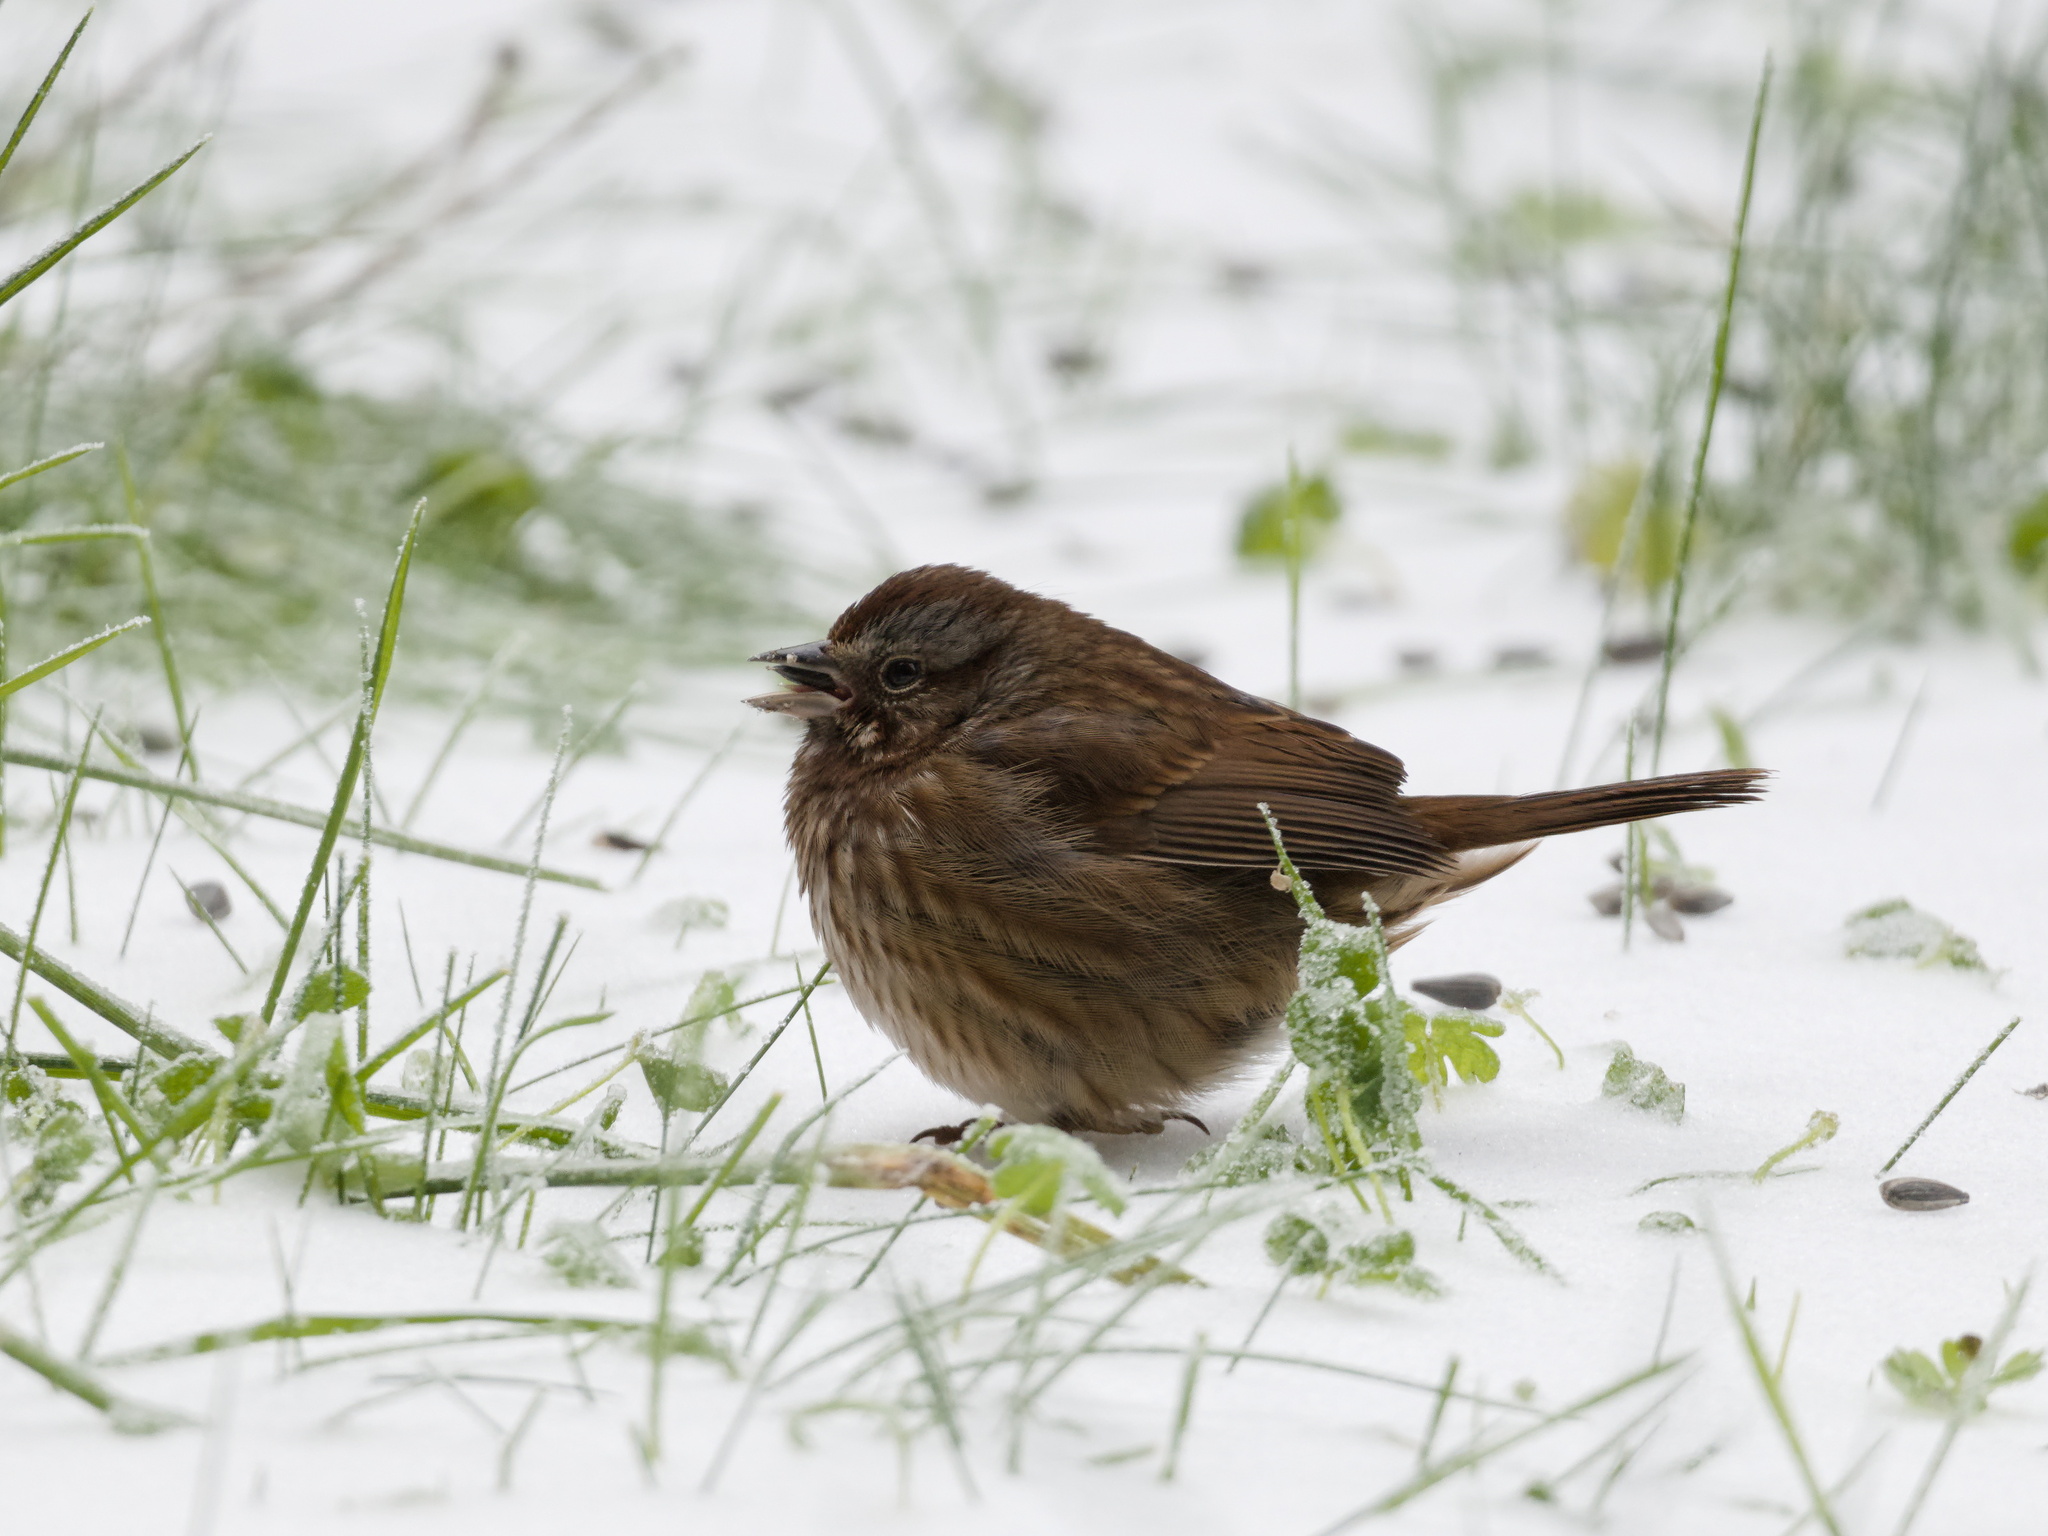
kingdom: Animalia
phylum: Chordata
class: Aves
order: Passeriformes
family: Passerellidae
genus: Melospiza
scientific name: Melospiza melodia
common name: Song sparrow
